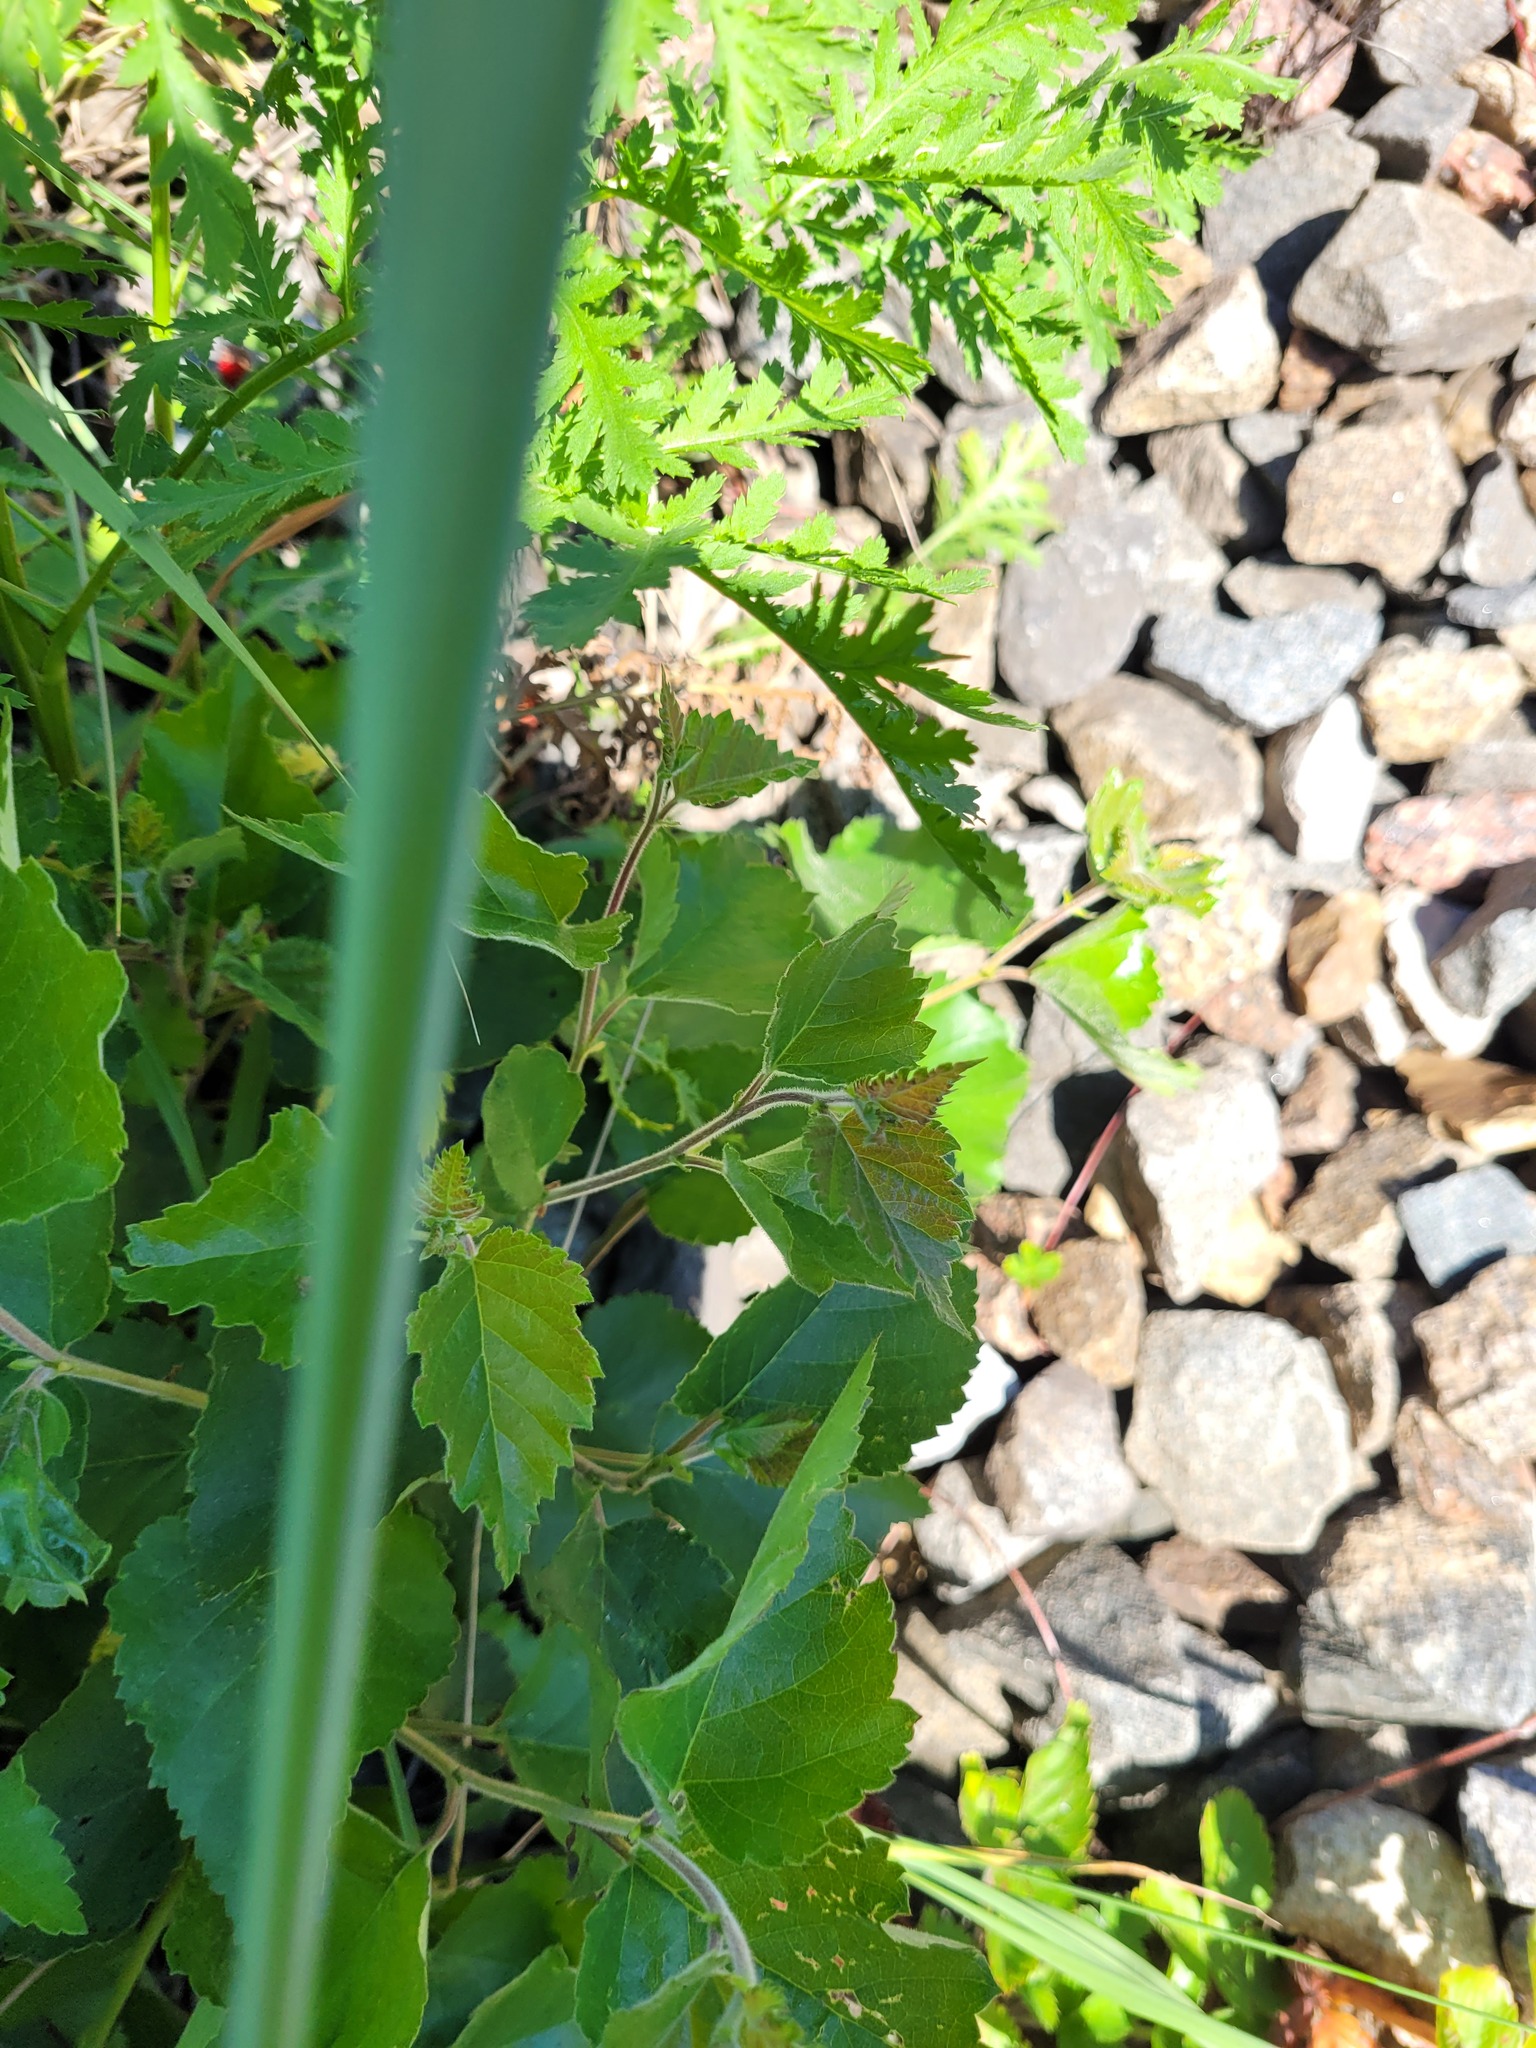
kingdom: Plantae
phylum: Tracheophyta
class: Magnoliopsida
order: Fagales
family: Betulaceae
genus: Betula
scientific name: Betula pubescens
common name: Downy birch
